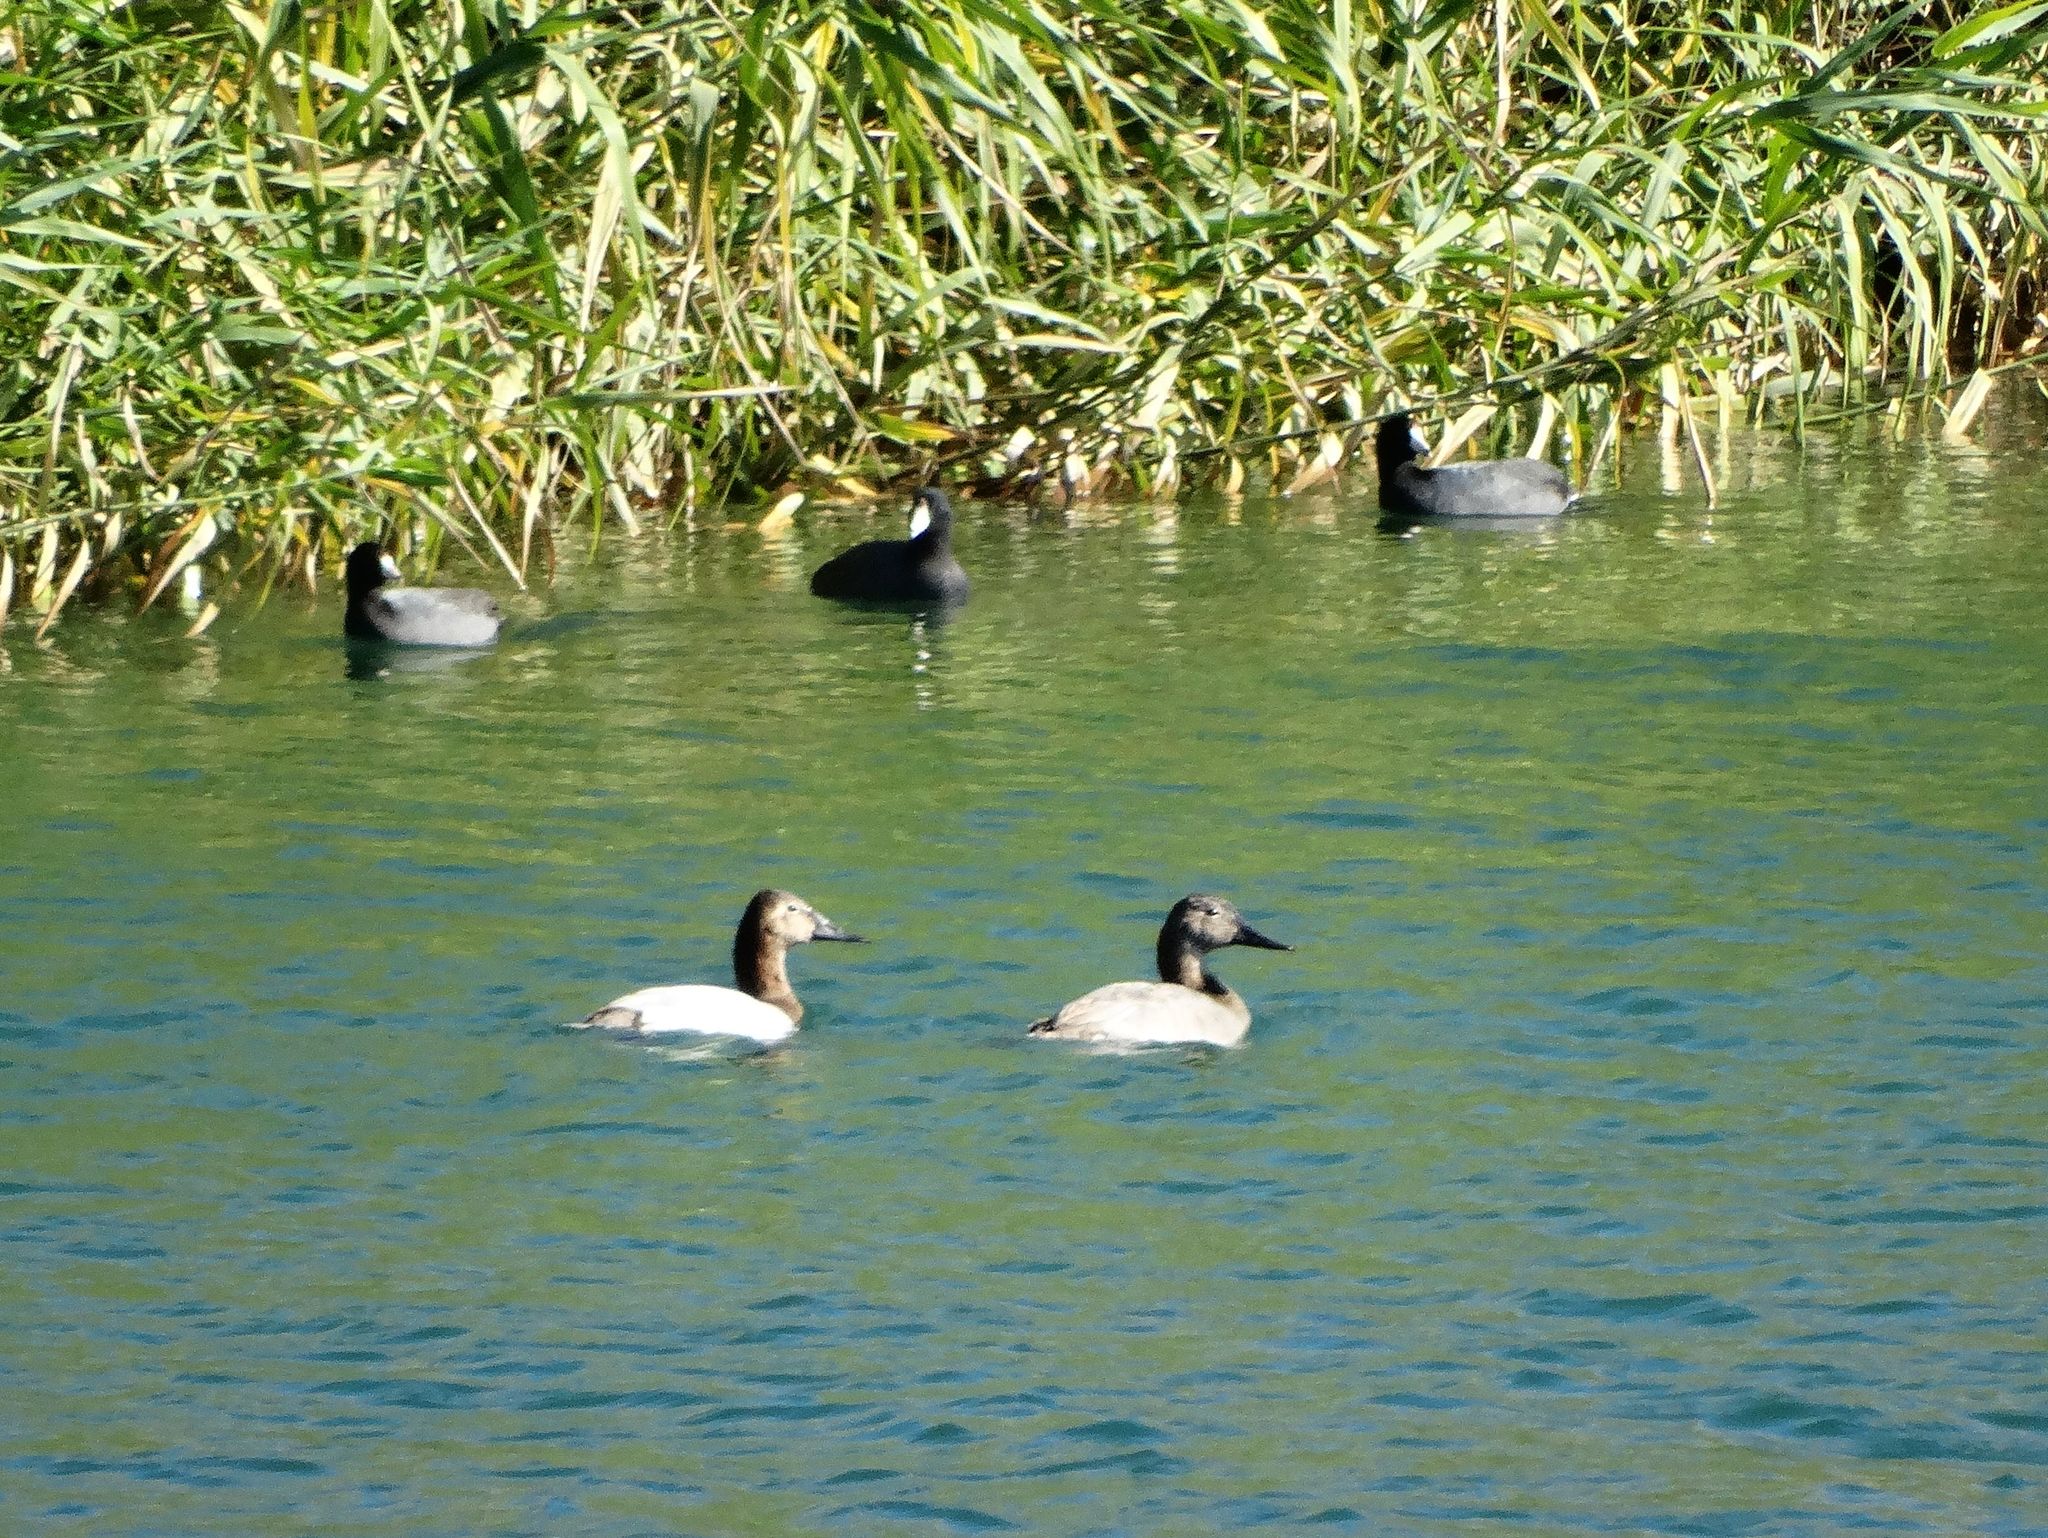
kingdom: Animalia
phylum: Chordata
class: Aves
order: Anseriformes
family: Anatidae
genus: Aythya
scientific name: Aythya valisineria
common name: Canvasback
